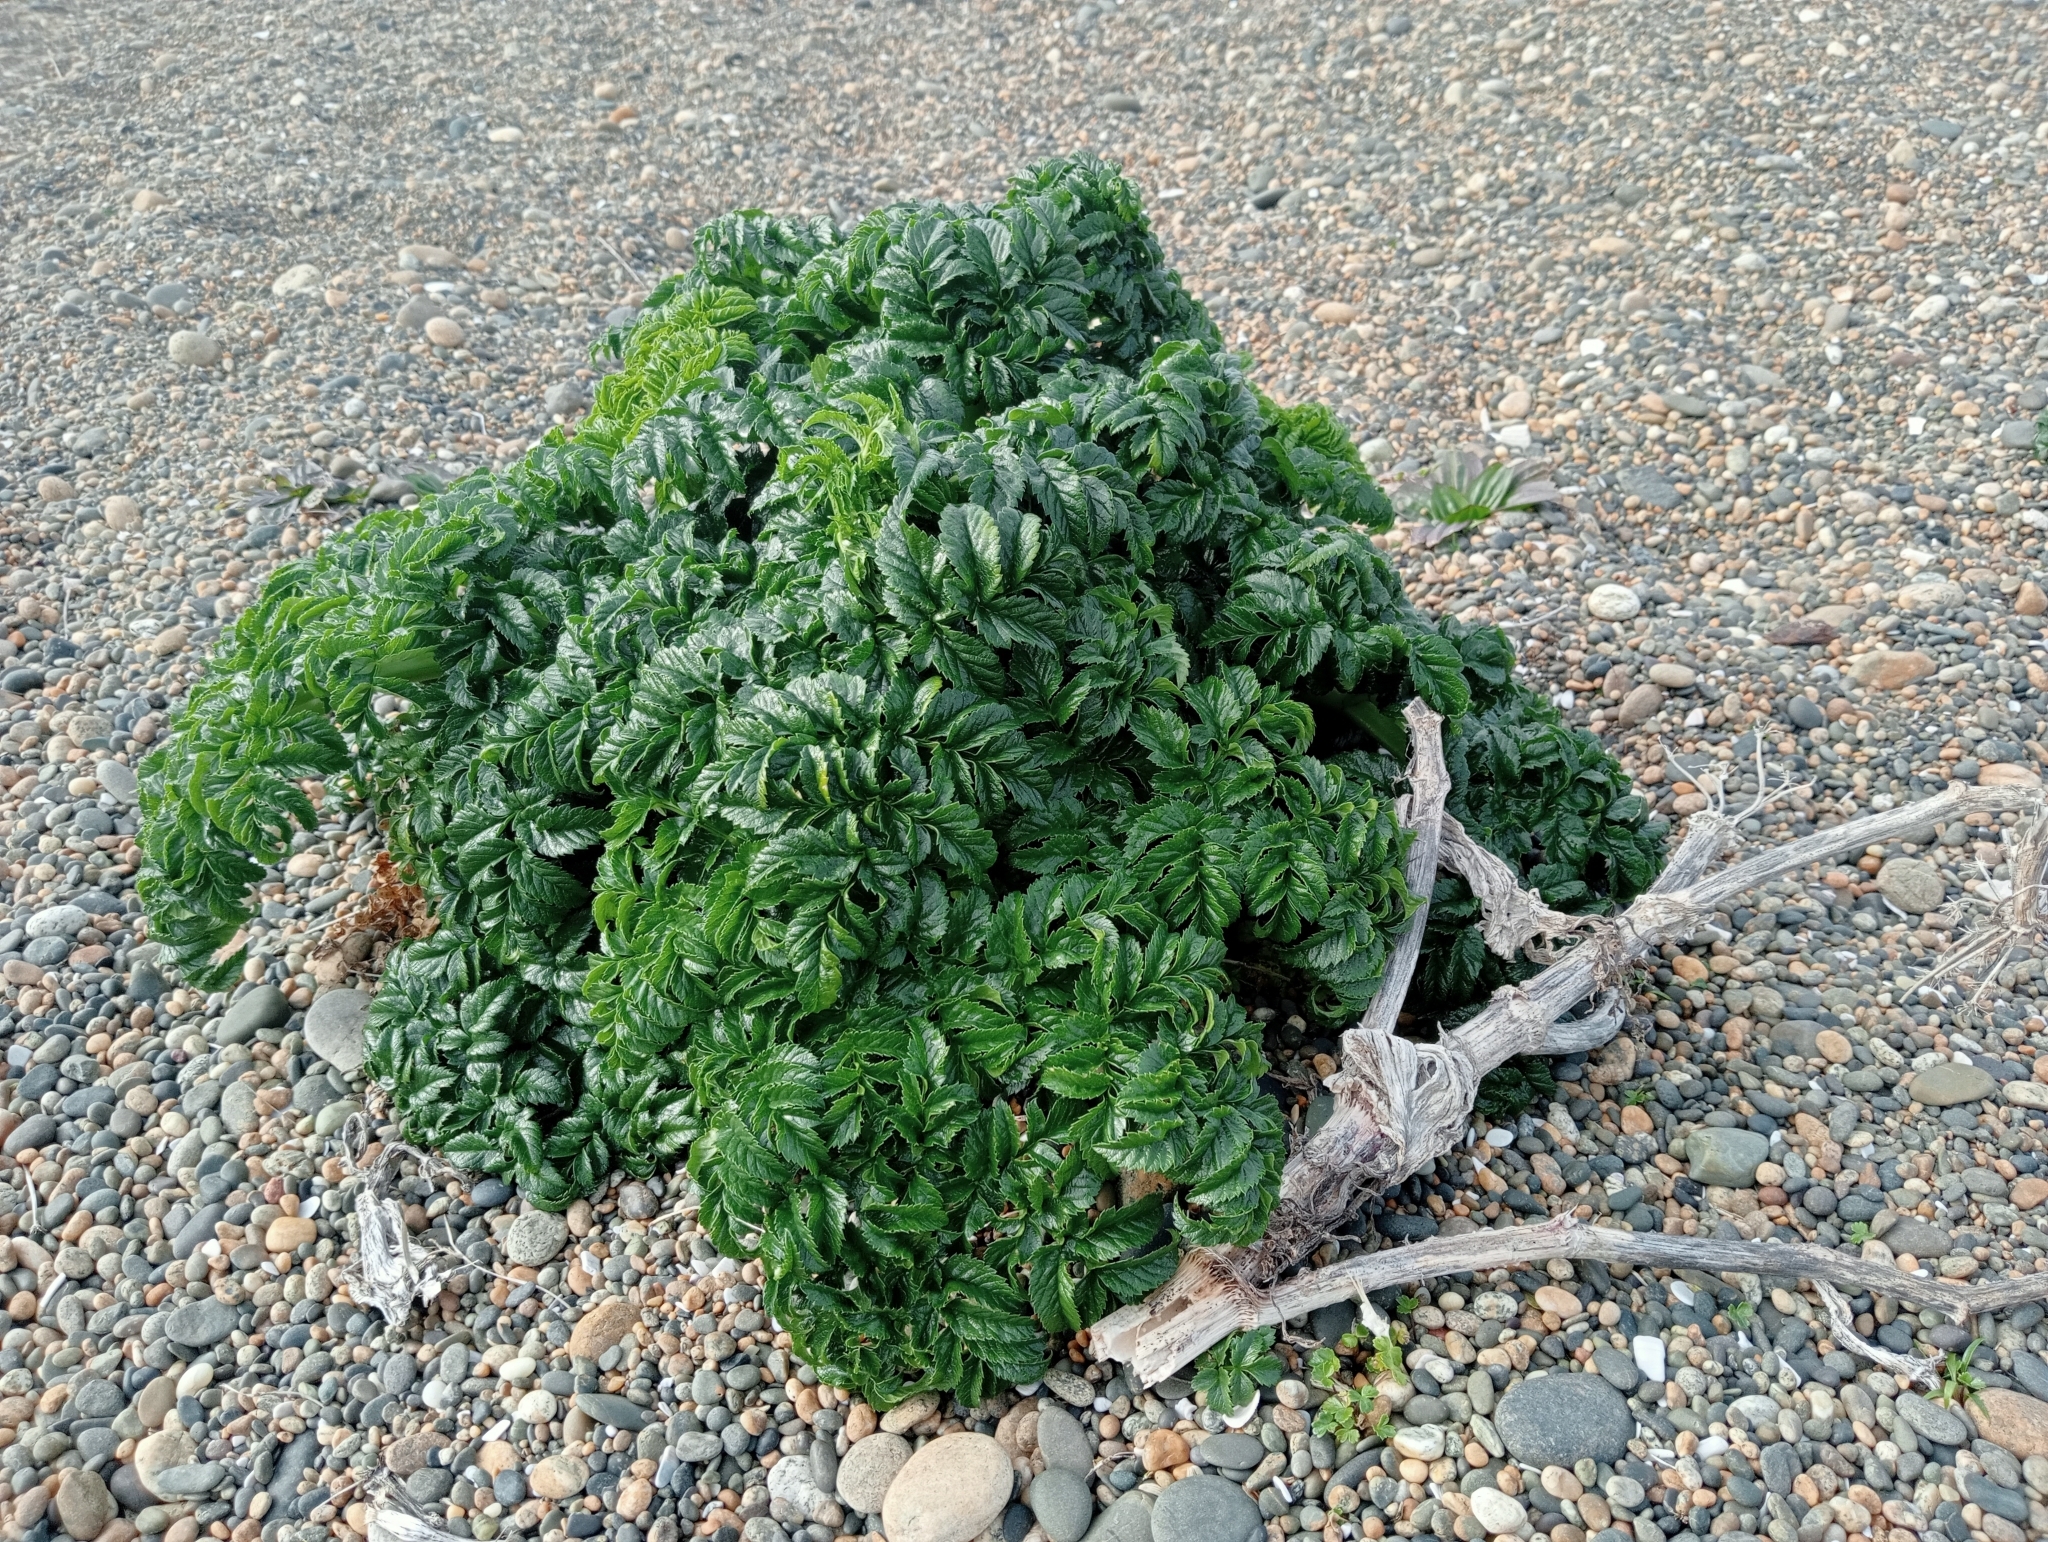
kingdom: Plantae
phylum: Tracheophyta
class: Magnoliopsida
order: Apiales
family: Apiaceae
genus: Angelica
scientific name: Angelica pachycarpa
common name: Portuguese angelica
